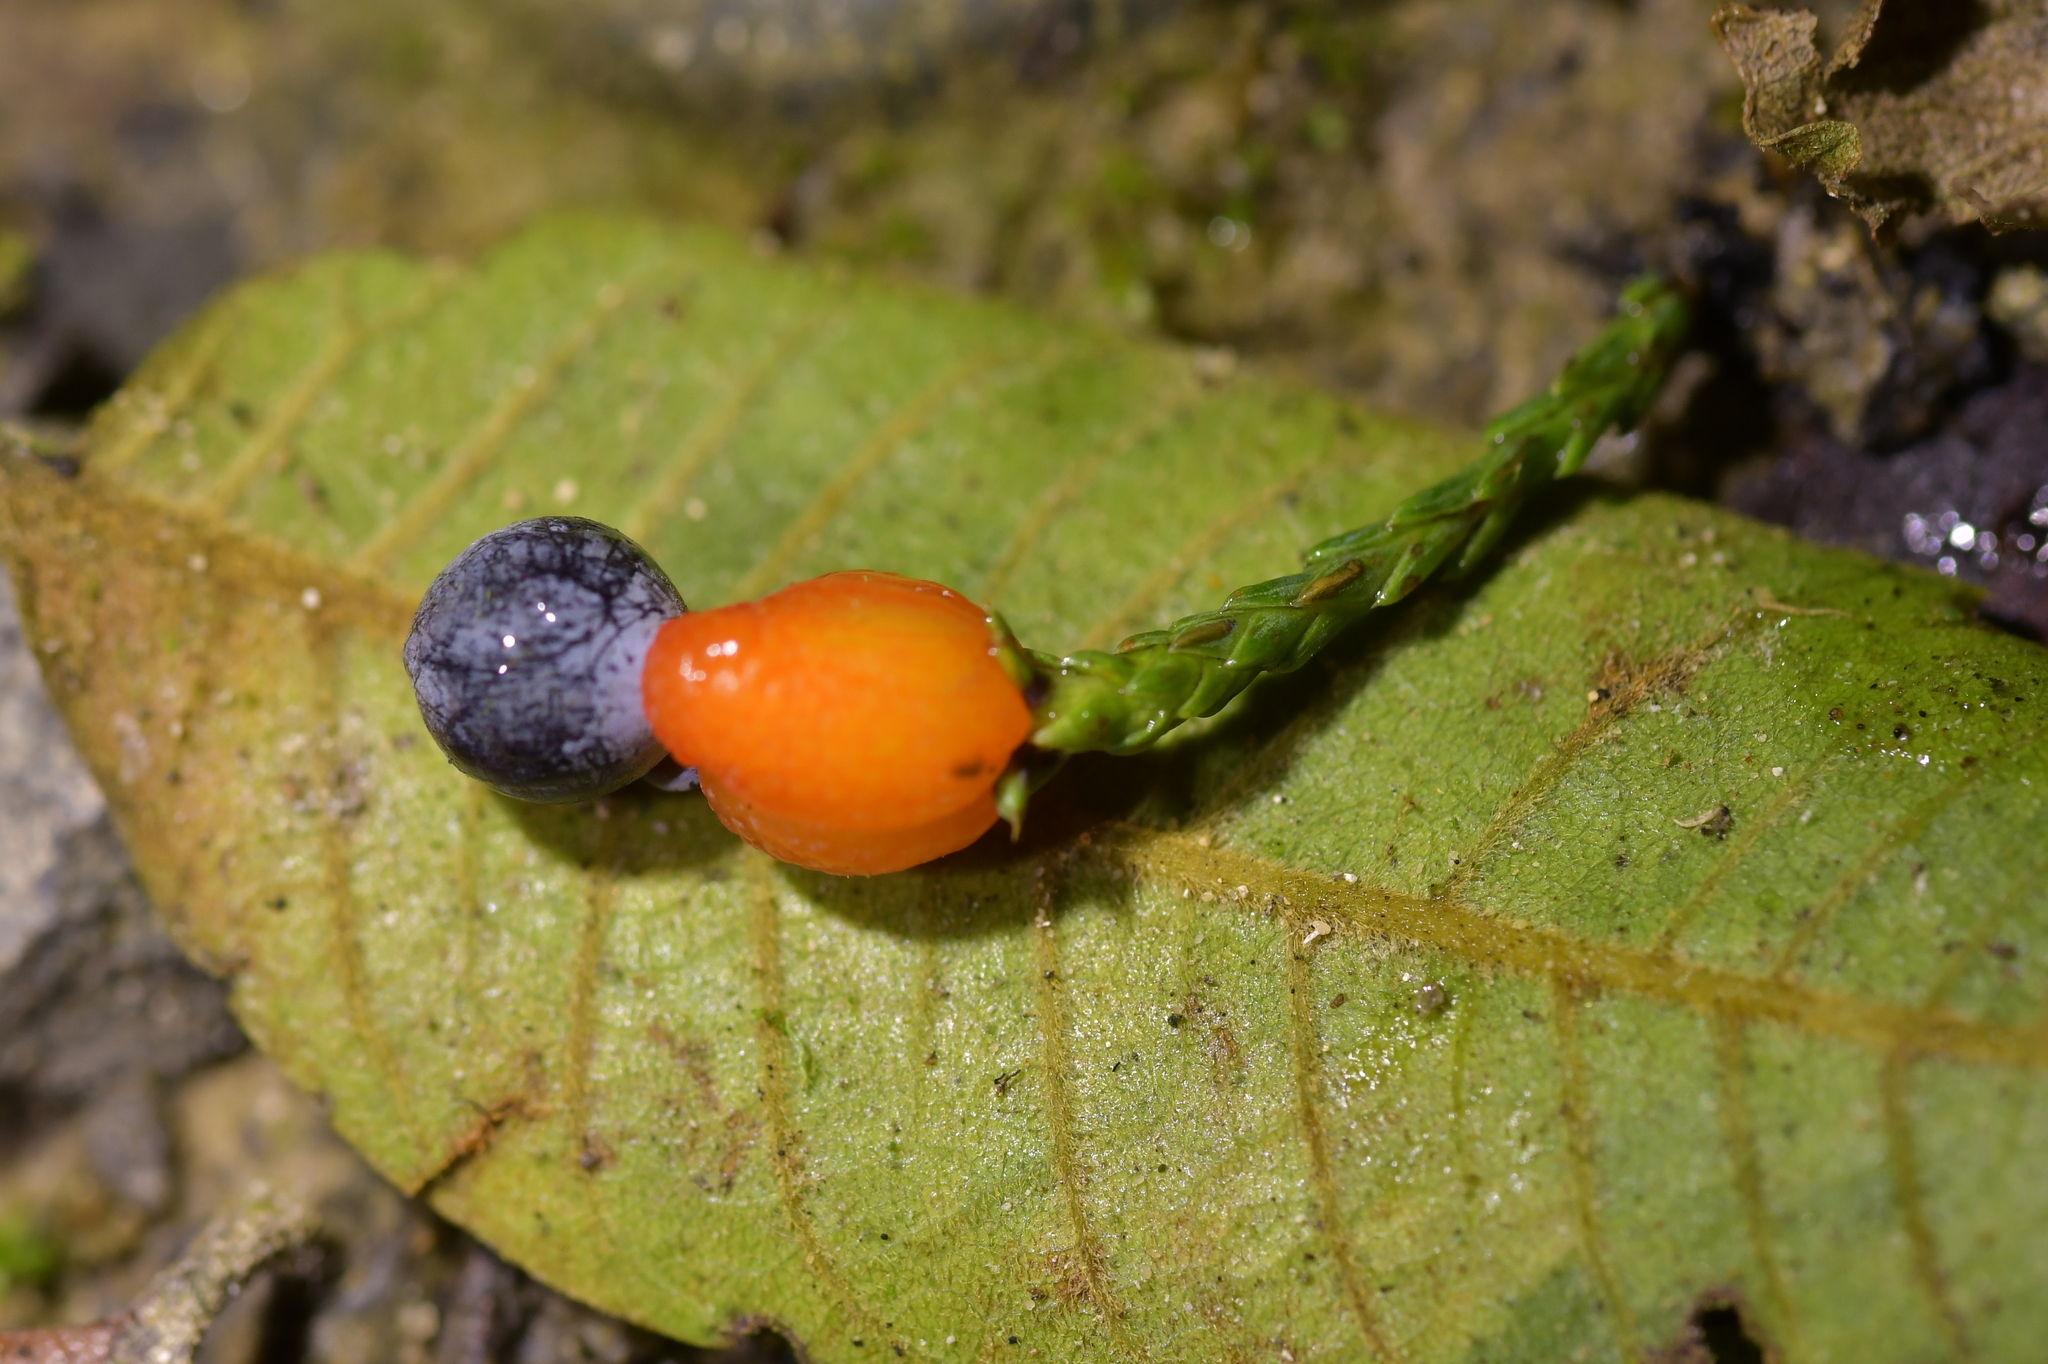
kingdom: Plantae
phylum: Tracheophyta
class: Pinopsida
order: Pinales
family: Podocarpaceae
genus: Dacrycarpus
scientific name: Dacrycarpus dacrydioides
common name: White pine
